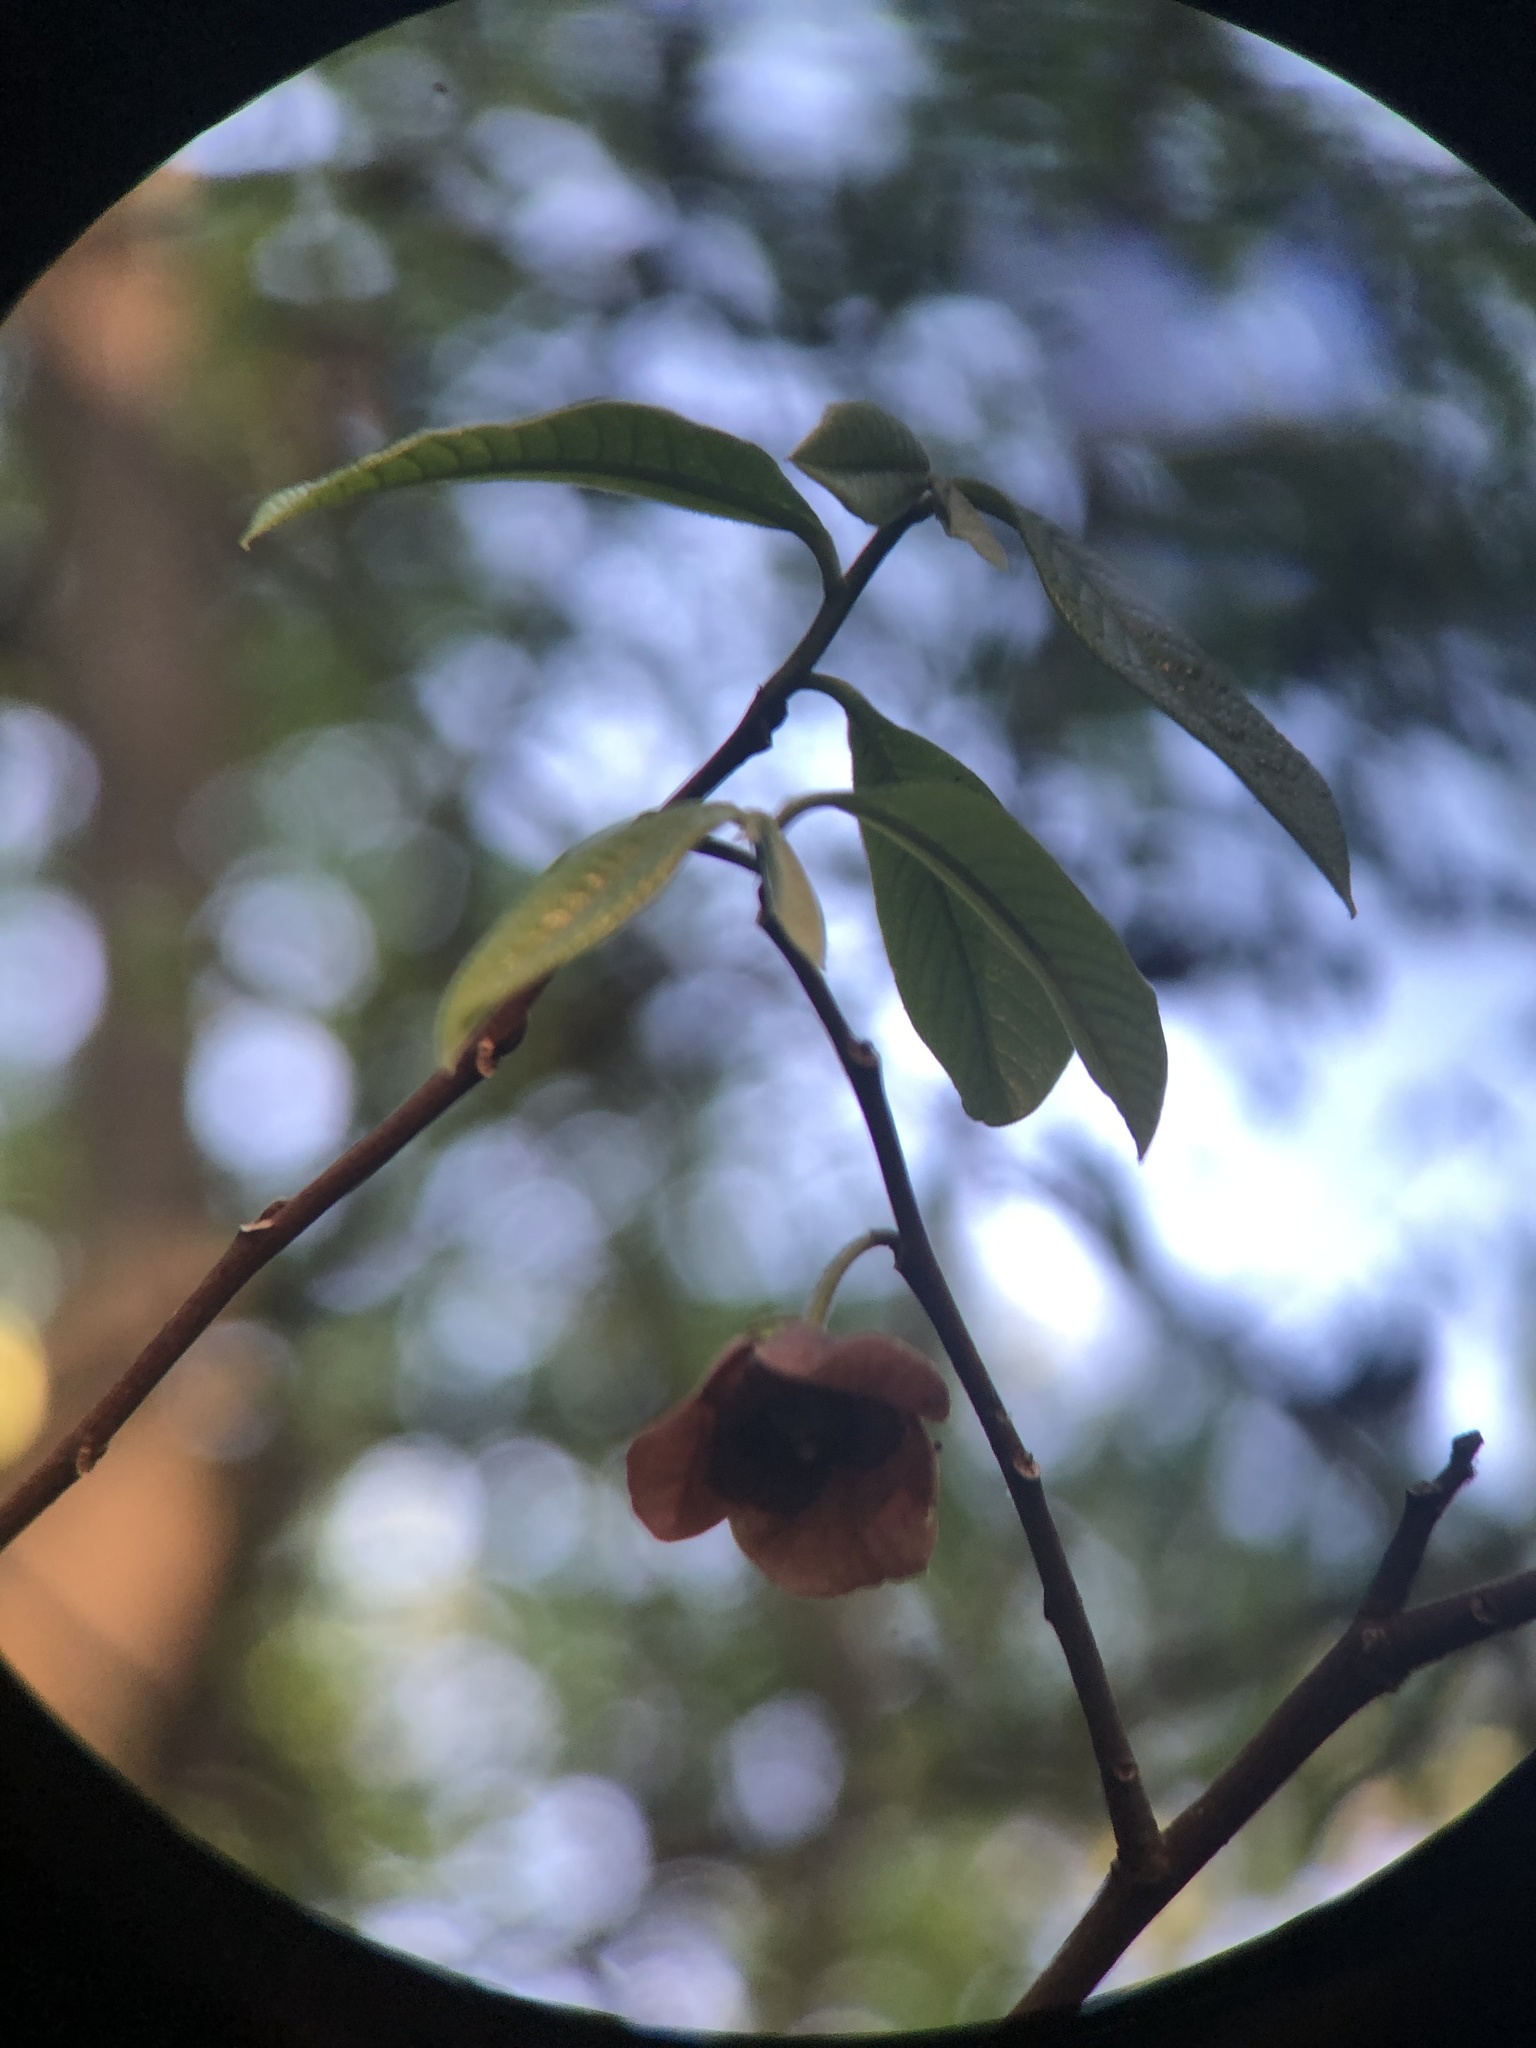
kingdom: Plantae
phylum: Tracheophyta
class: Magnoliopsida
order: Magnoliales
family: Annonaceae
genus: Asimina
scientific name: Asimina triloba
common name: Dog-banana
